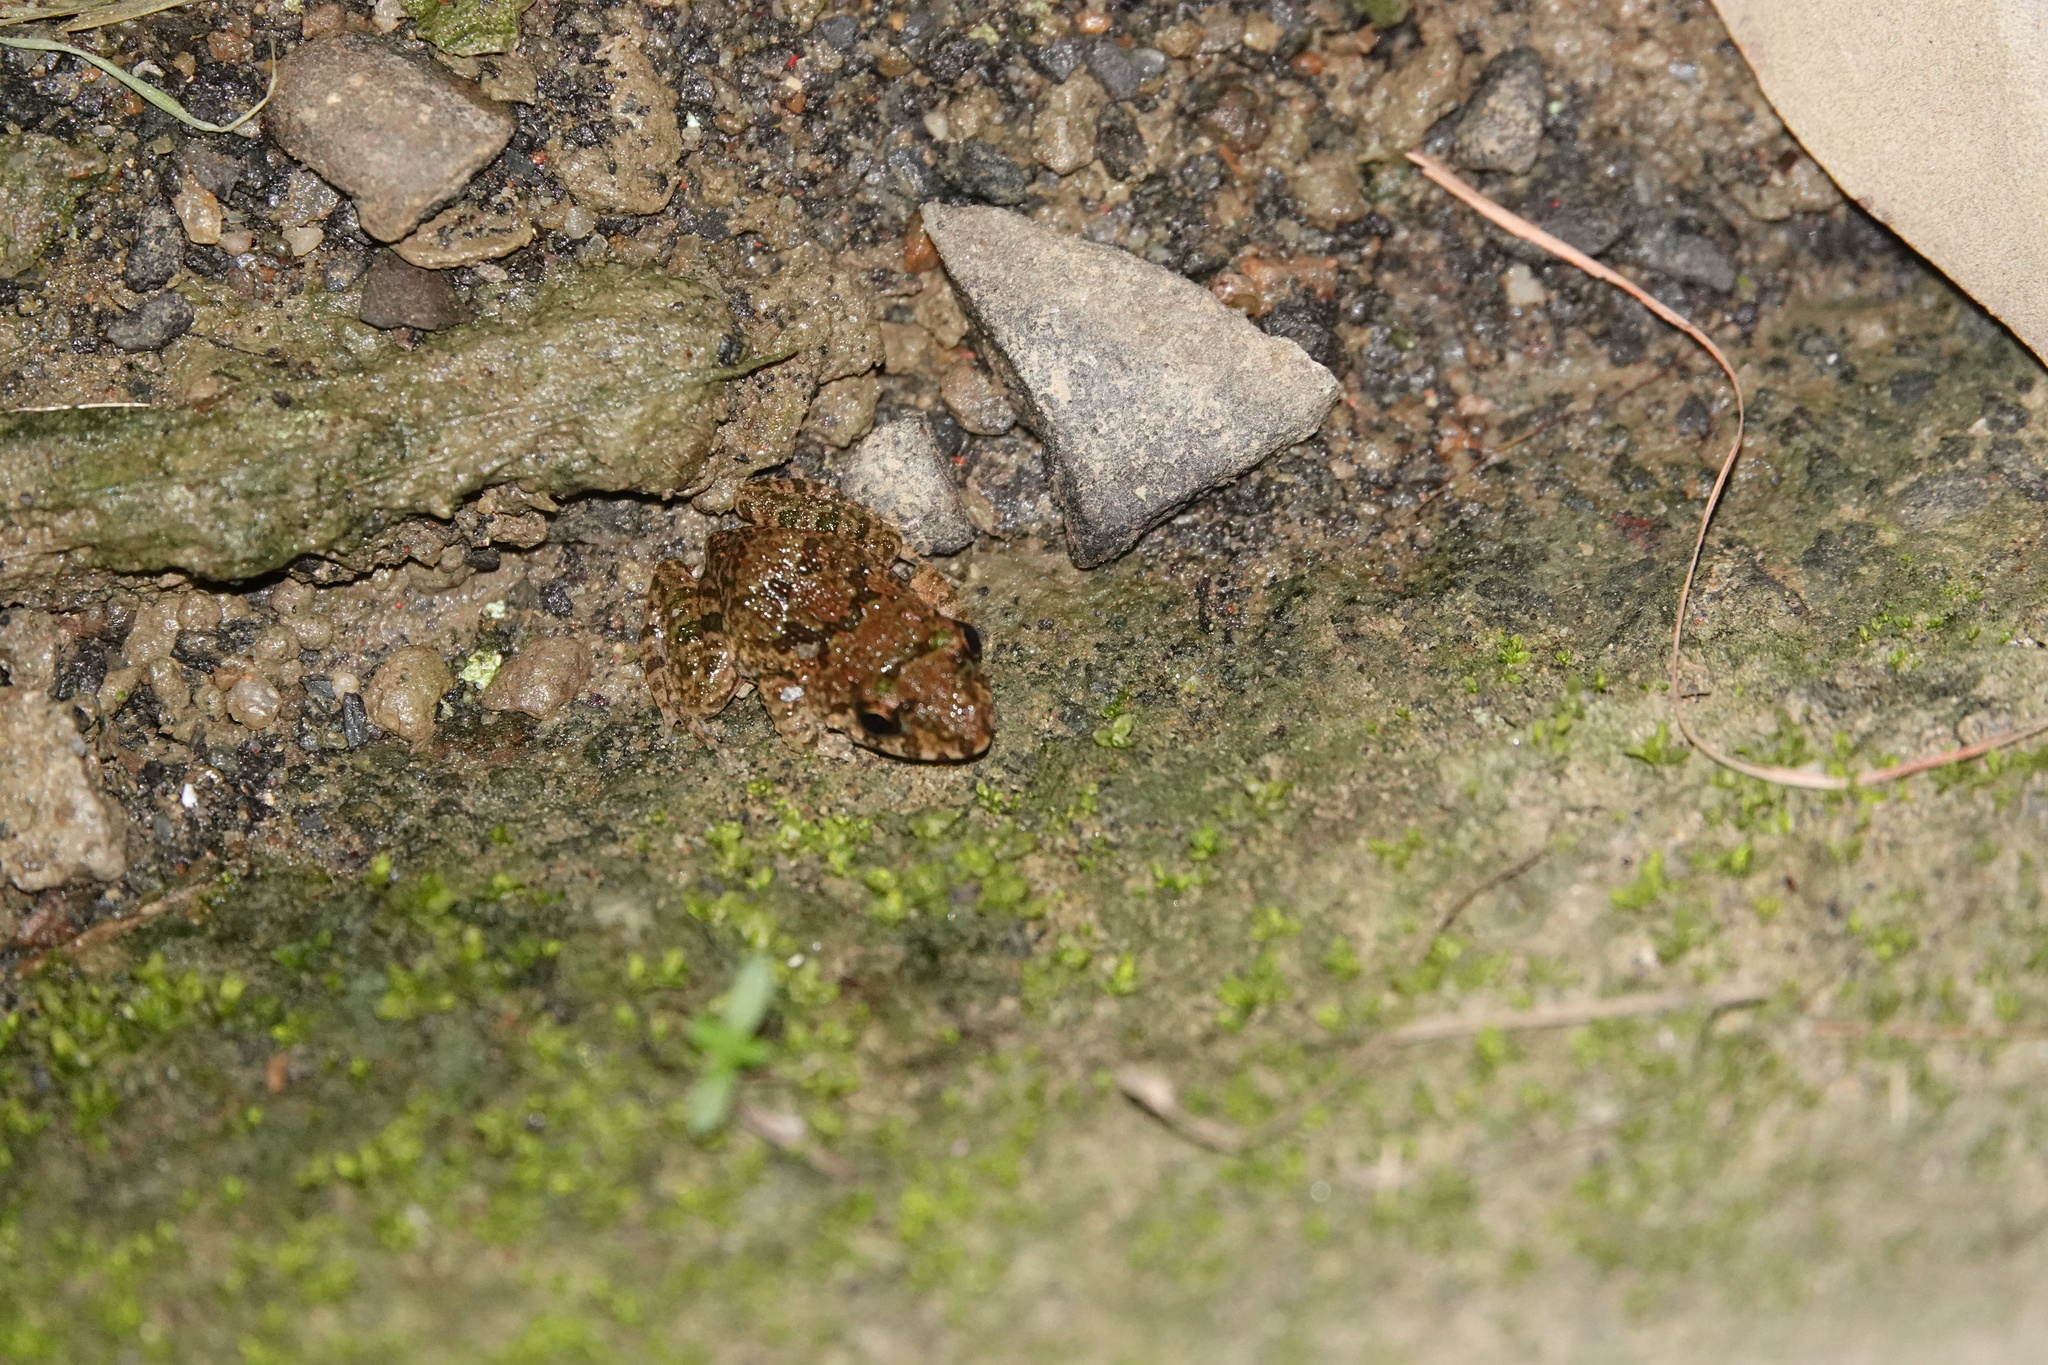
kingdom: Animalia
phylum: Chordata
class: Amphibia
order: Anura
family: Dicroglossidae
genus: Fejervarya
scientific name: Fejervarya limnocharis
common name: Asian grass frog/common pond frog/field frog/grass frog/indian rice frog
